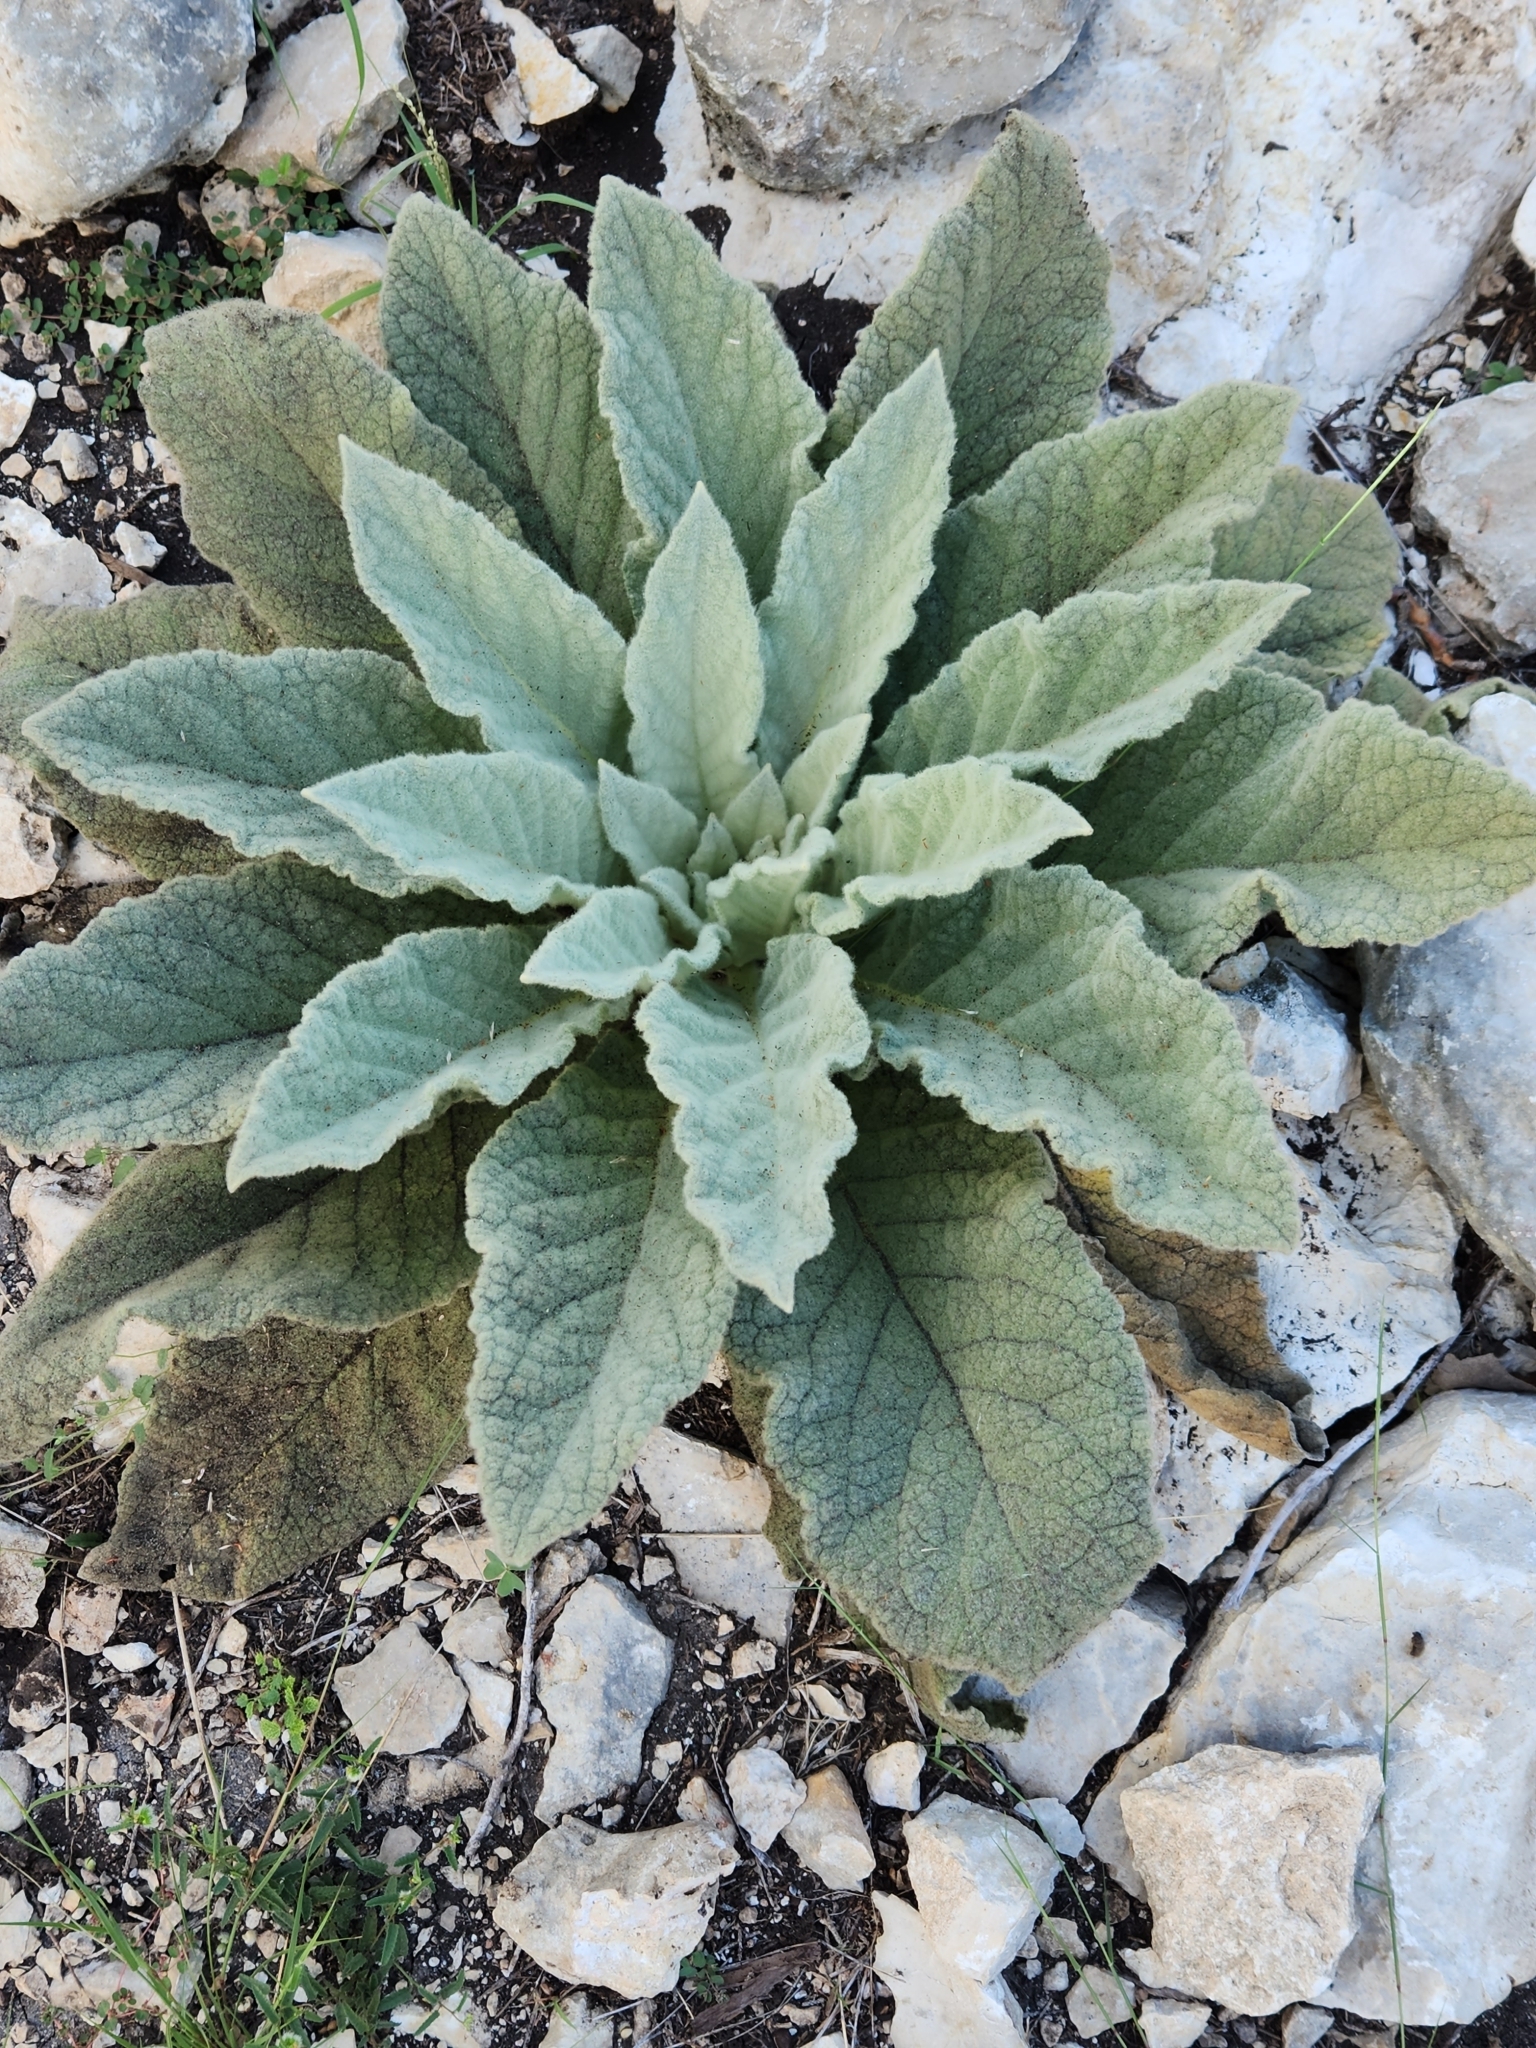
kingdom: Plantae
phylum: Tracheophyta
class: Magnoliopsida
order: Lamiales
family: Scrophulariaceae
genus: Verbascum
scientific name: Verbascum thapsus
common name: Common mullein
